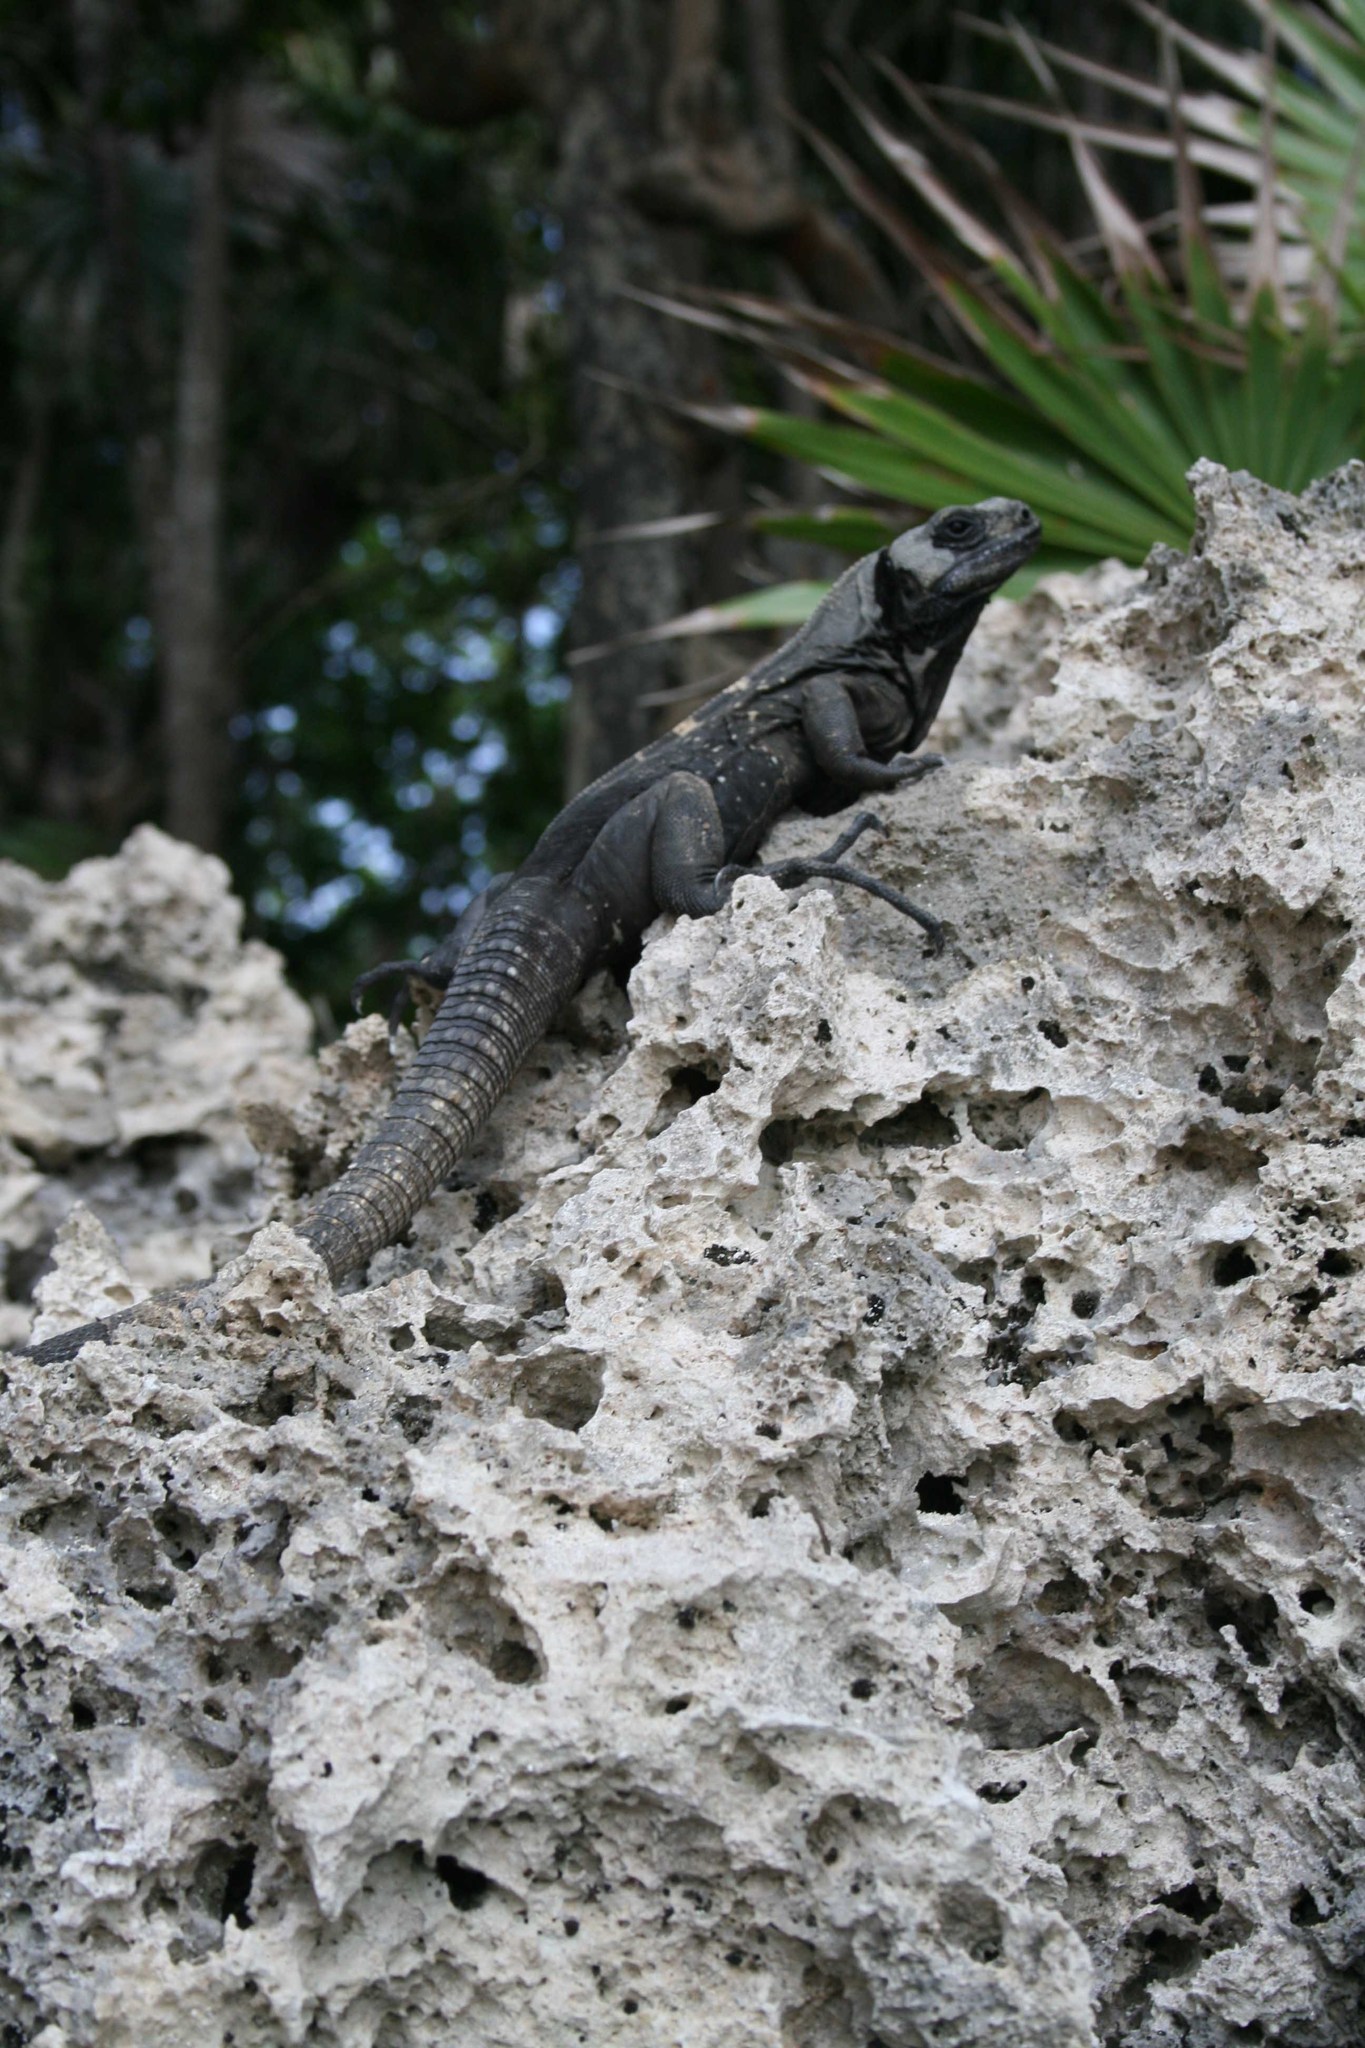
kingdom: Animalia
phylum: Chordata
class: Squamata
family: Iguanidae
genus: Ctenosaura
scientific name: Ctenosaura oedirhina
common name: Roatan spiny-tailed iguana
